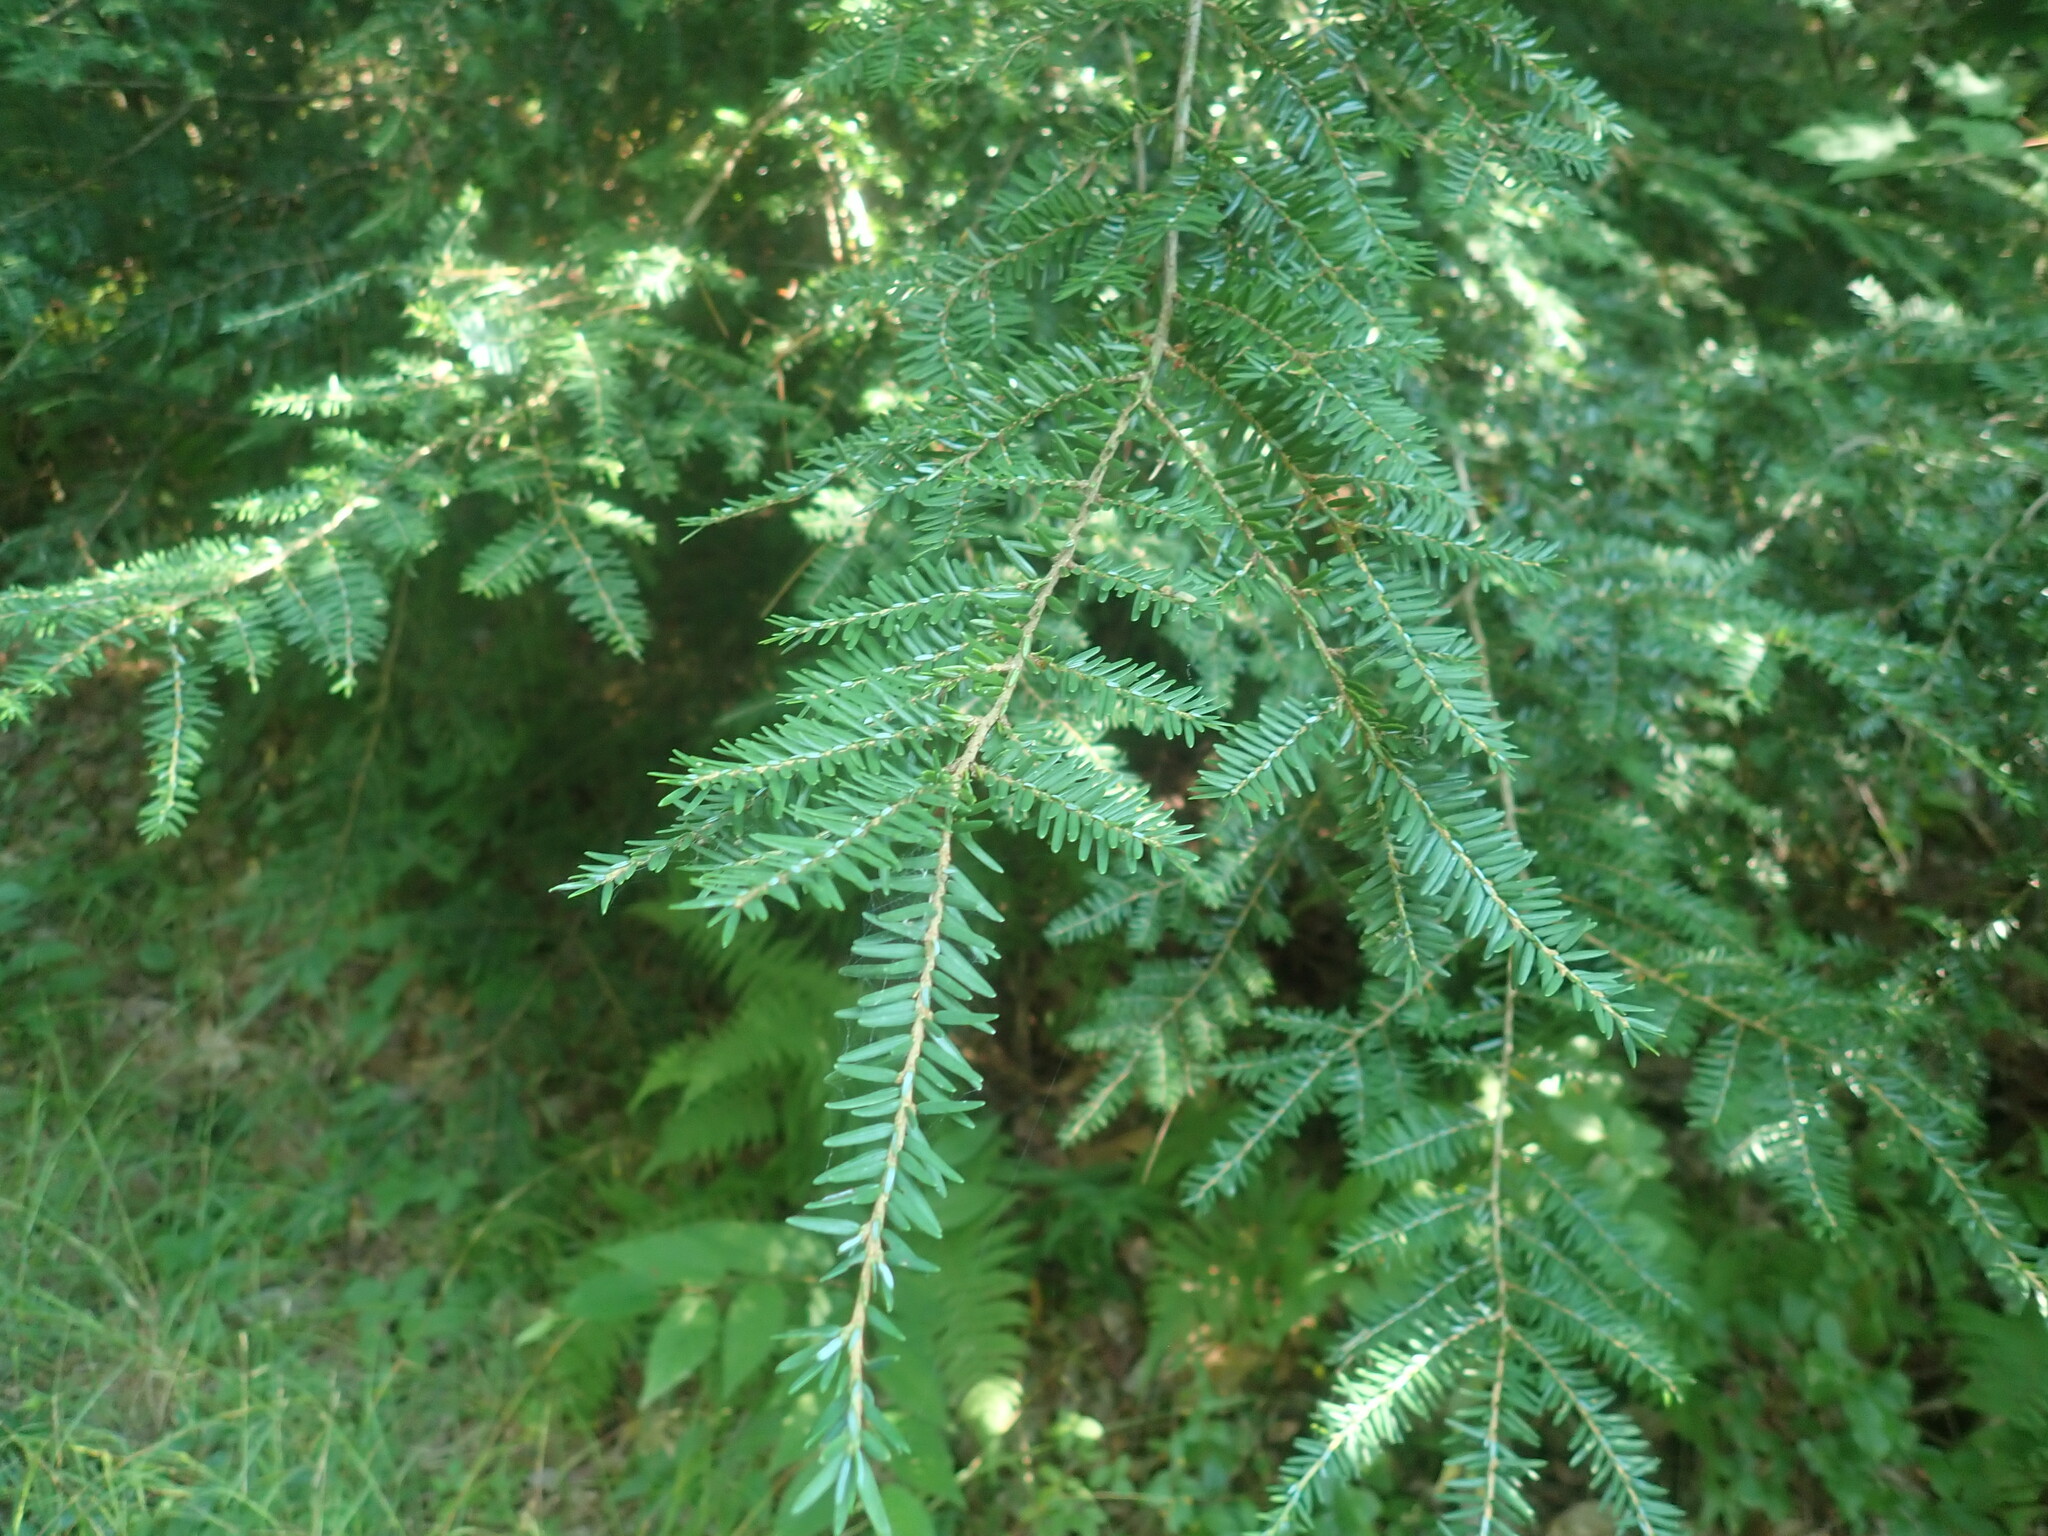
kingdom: Plantae
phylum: Tracheophyta
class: Pinopsida
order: Pinales
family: Pinaceae
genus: Tsuga
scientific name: Tsuga canadensis
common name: Eastern hemlock
